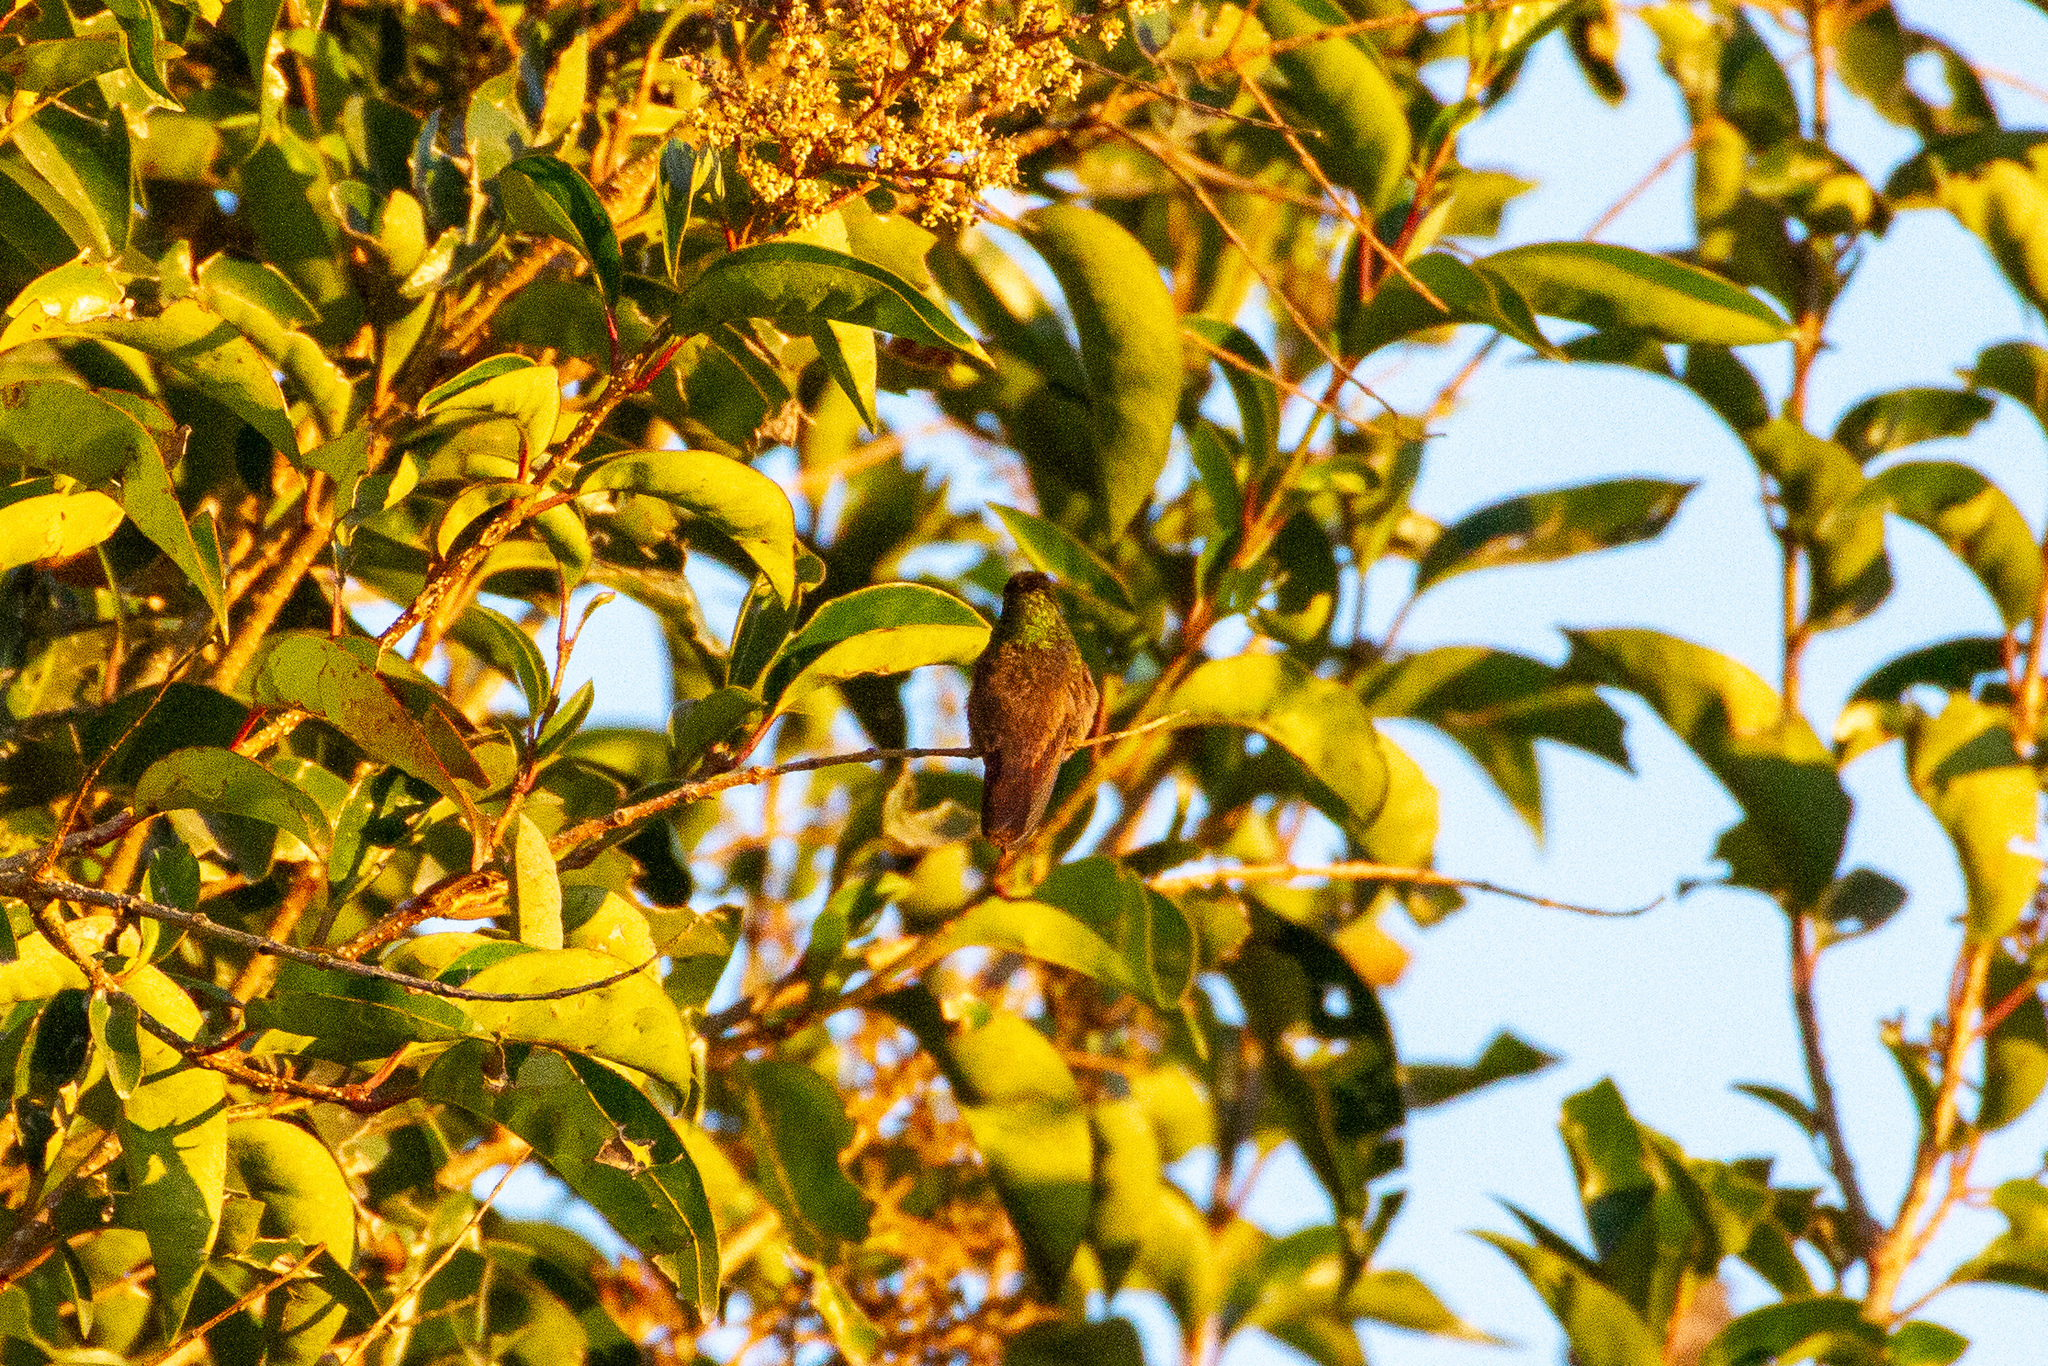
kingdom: Animalia
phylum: Chordata
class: Aves
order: Apodiformes
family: Trochilidae
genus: Saucerottia
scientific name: Saucerottia beryllina
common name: Berylline hummingbird
